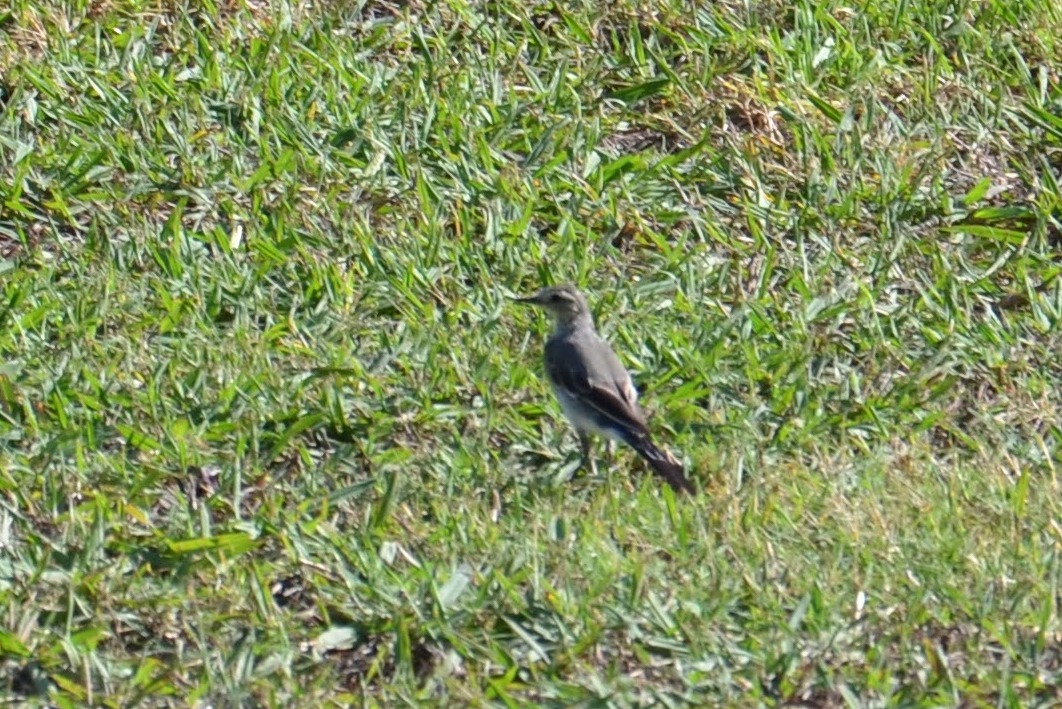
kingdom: Animalia
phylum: Chordata
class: Aves
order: Passeriformes
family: Motacillidae
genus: Motacilla
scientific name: Motacilla alba
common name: White wagtail
